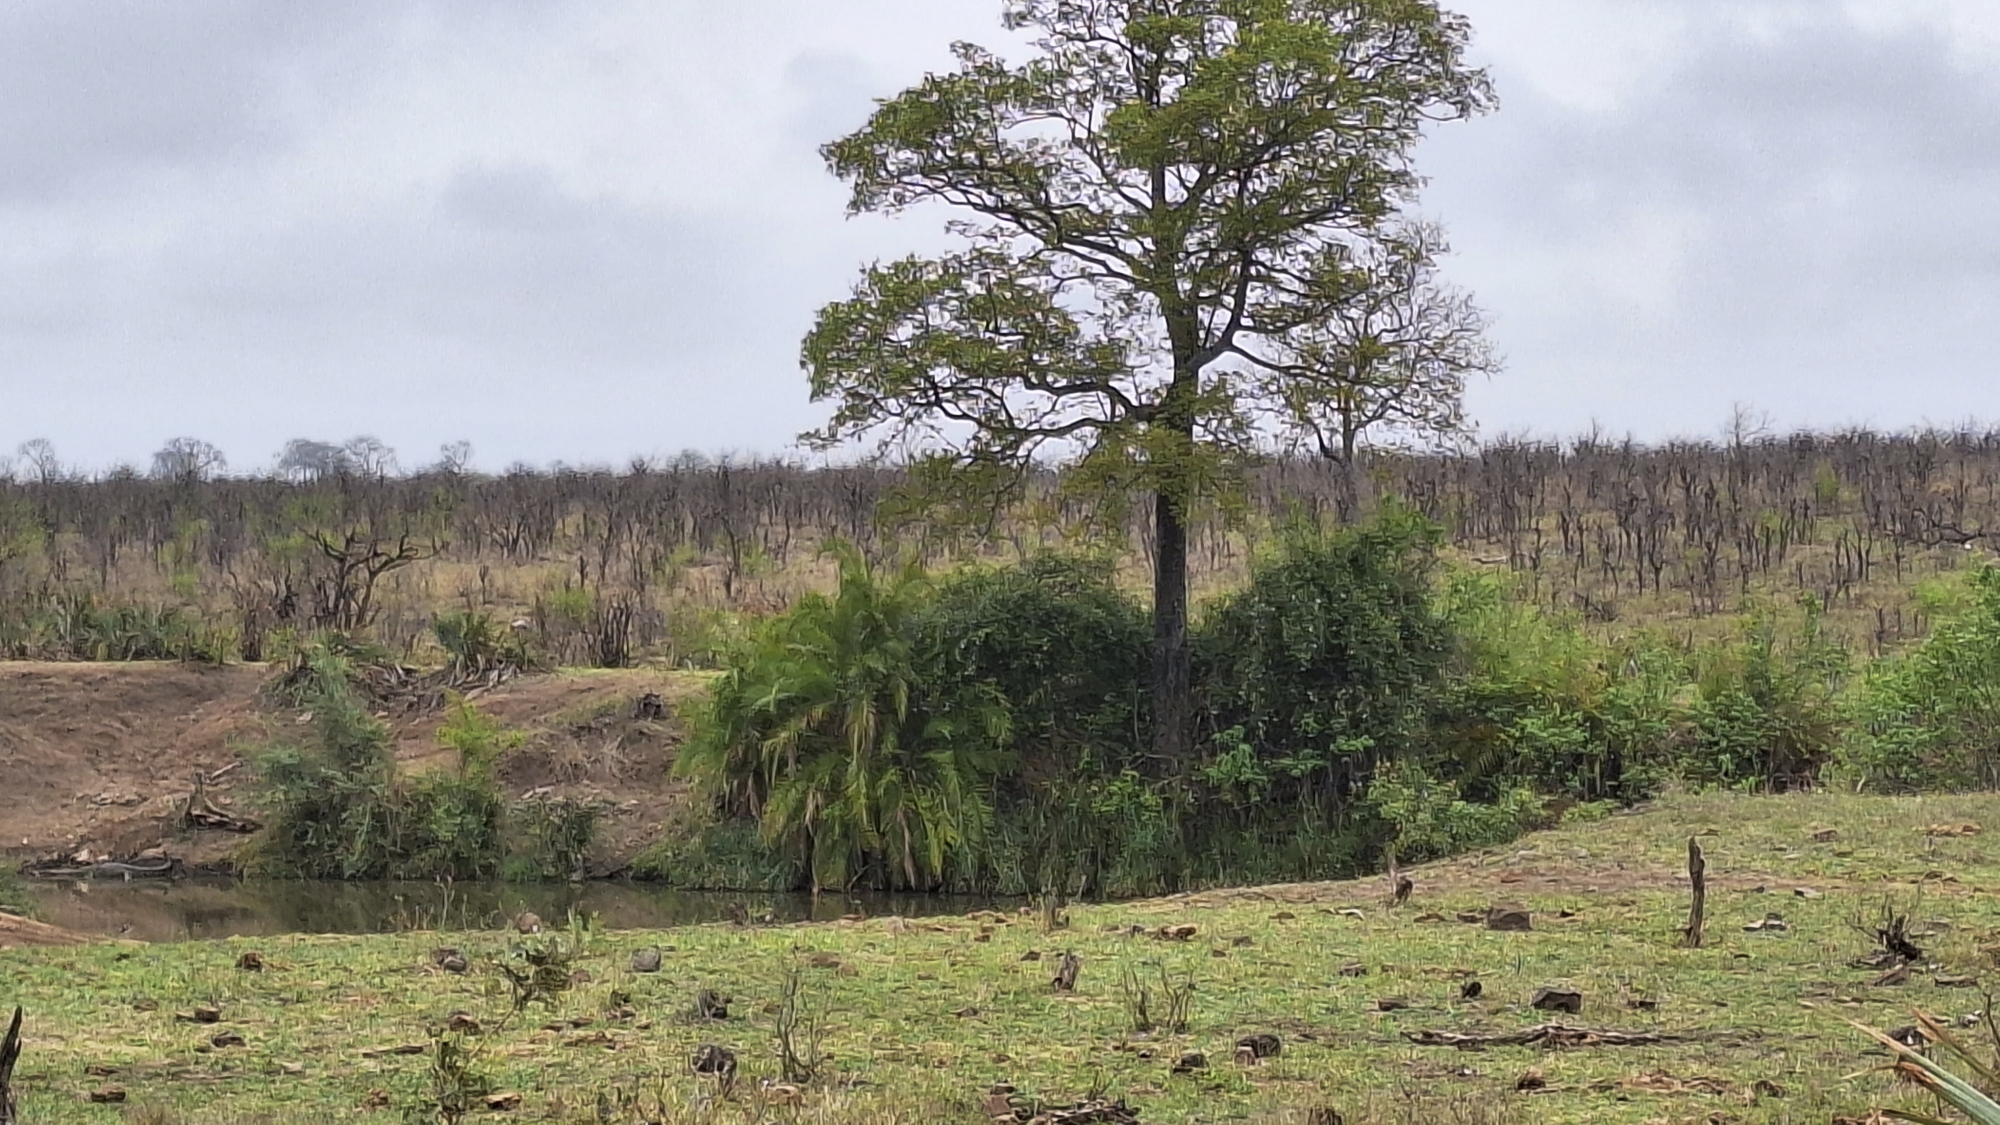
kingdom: Plantae
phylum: Tracheophyta
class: Liliopsida
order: Arecales
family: Arecaceae
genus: Phoenix
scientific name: Phoenix reclinata
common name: Senegal date palm
